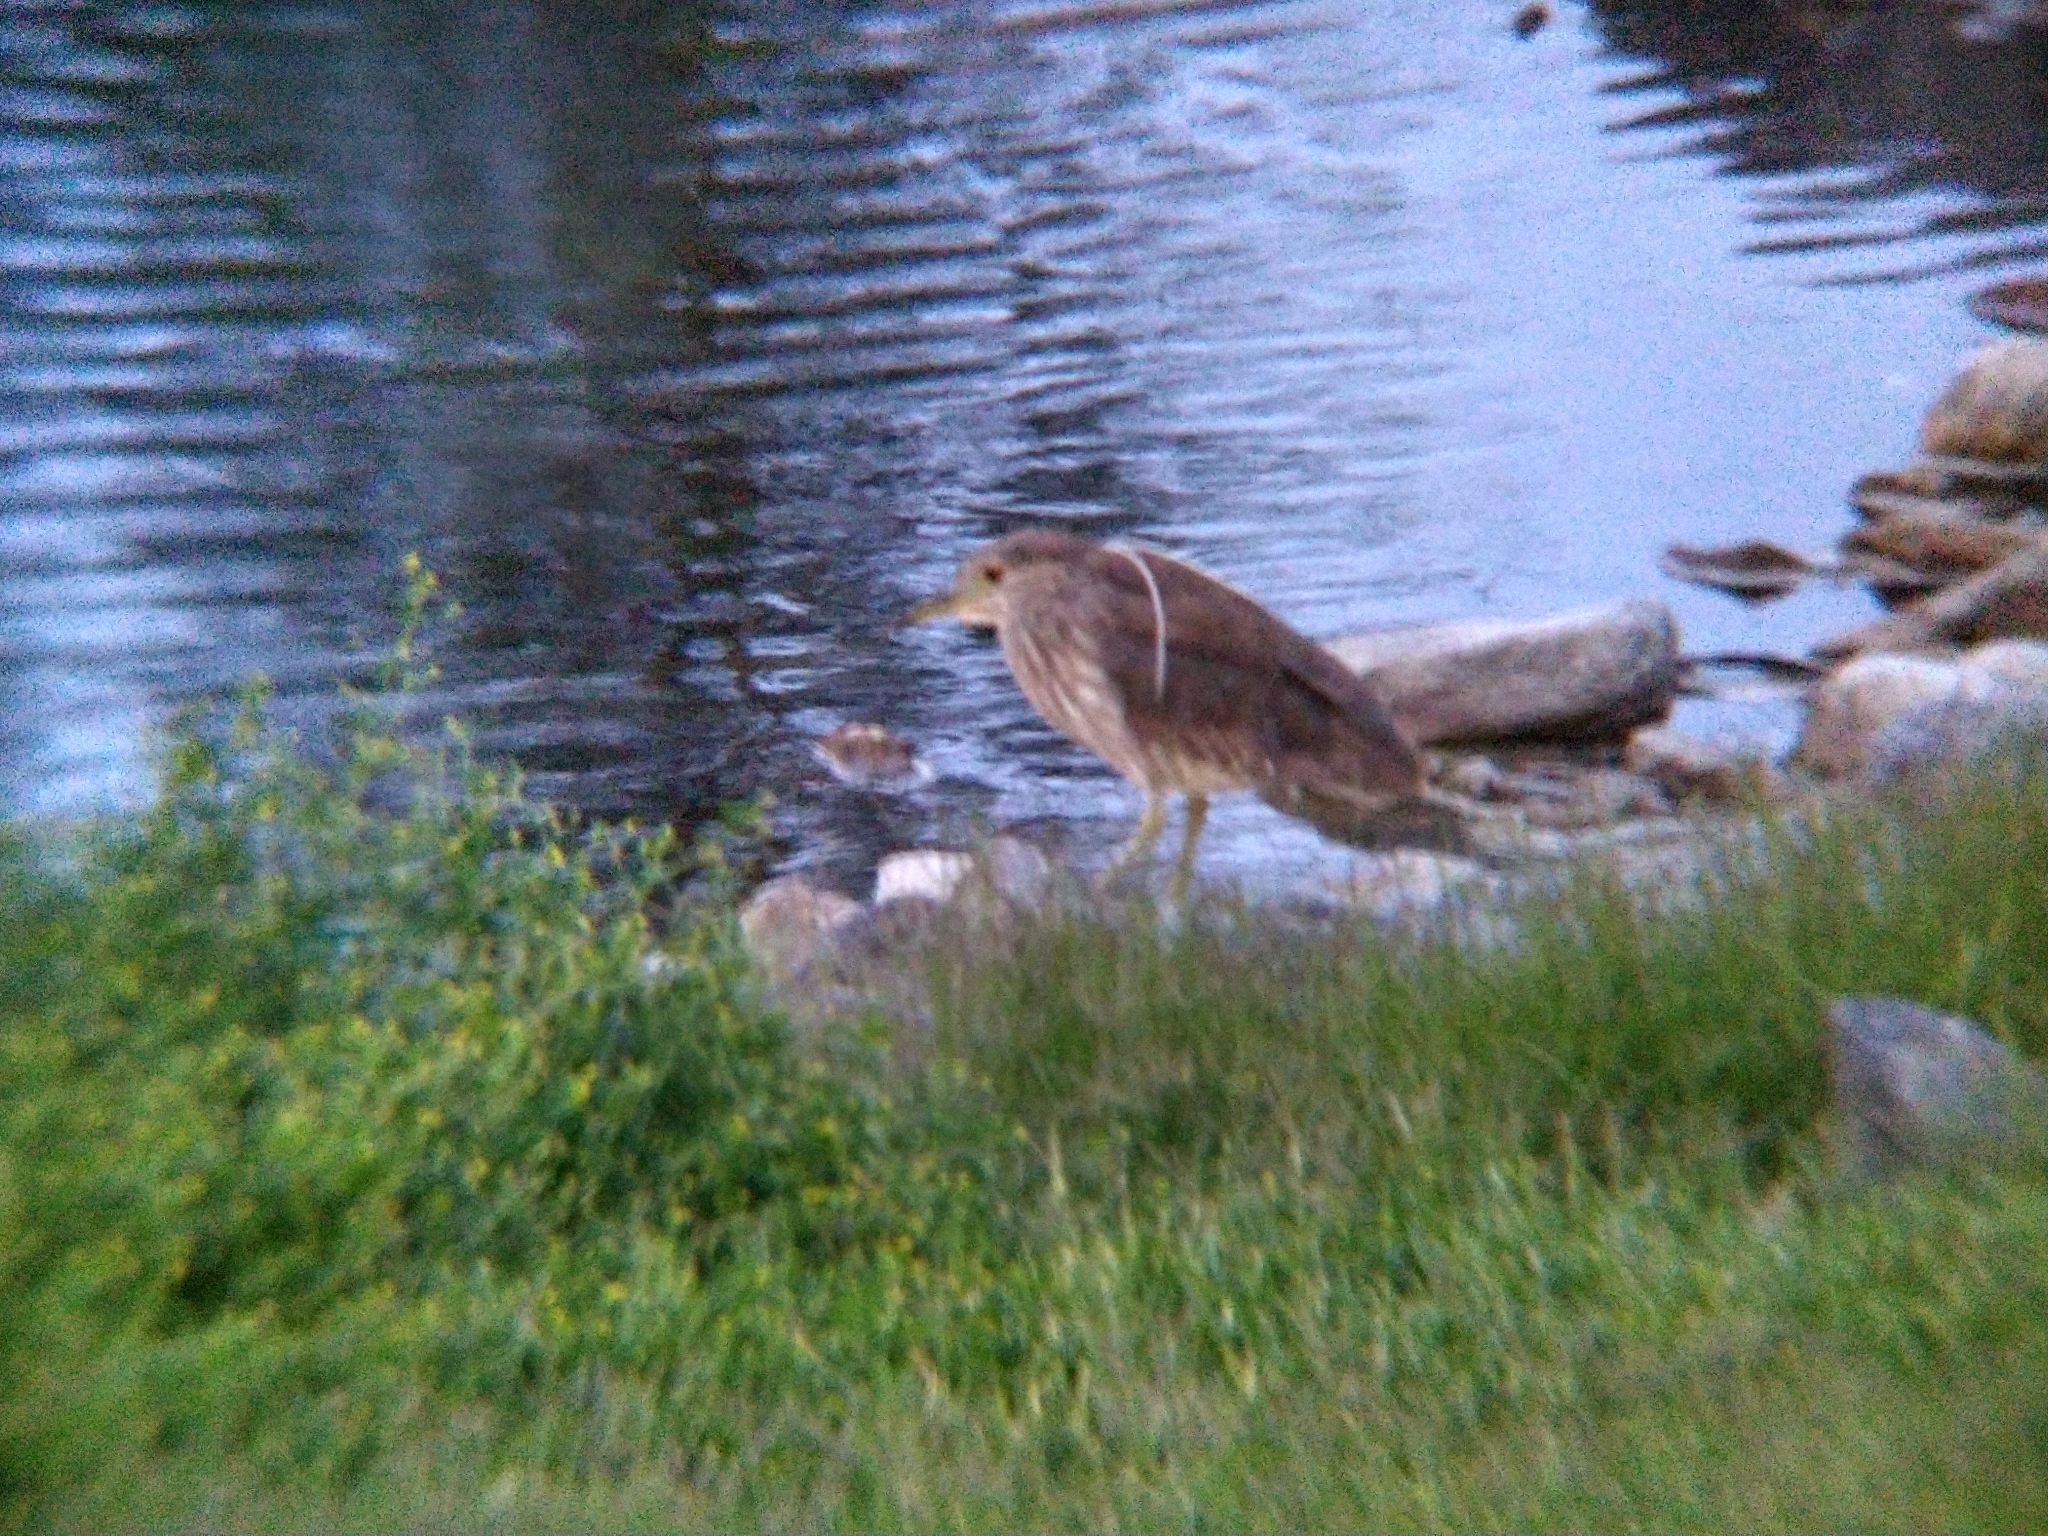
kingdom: Animalia
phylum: Chordata
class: Aves
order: Pelecaniformes
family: Ardeidae
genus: Nycticorax
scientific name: Nycticorax nycticorax
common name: Black-crowned night heron
